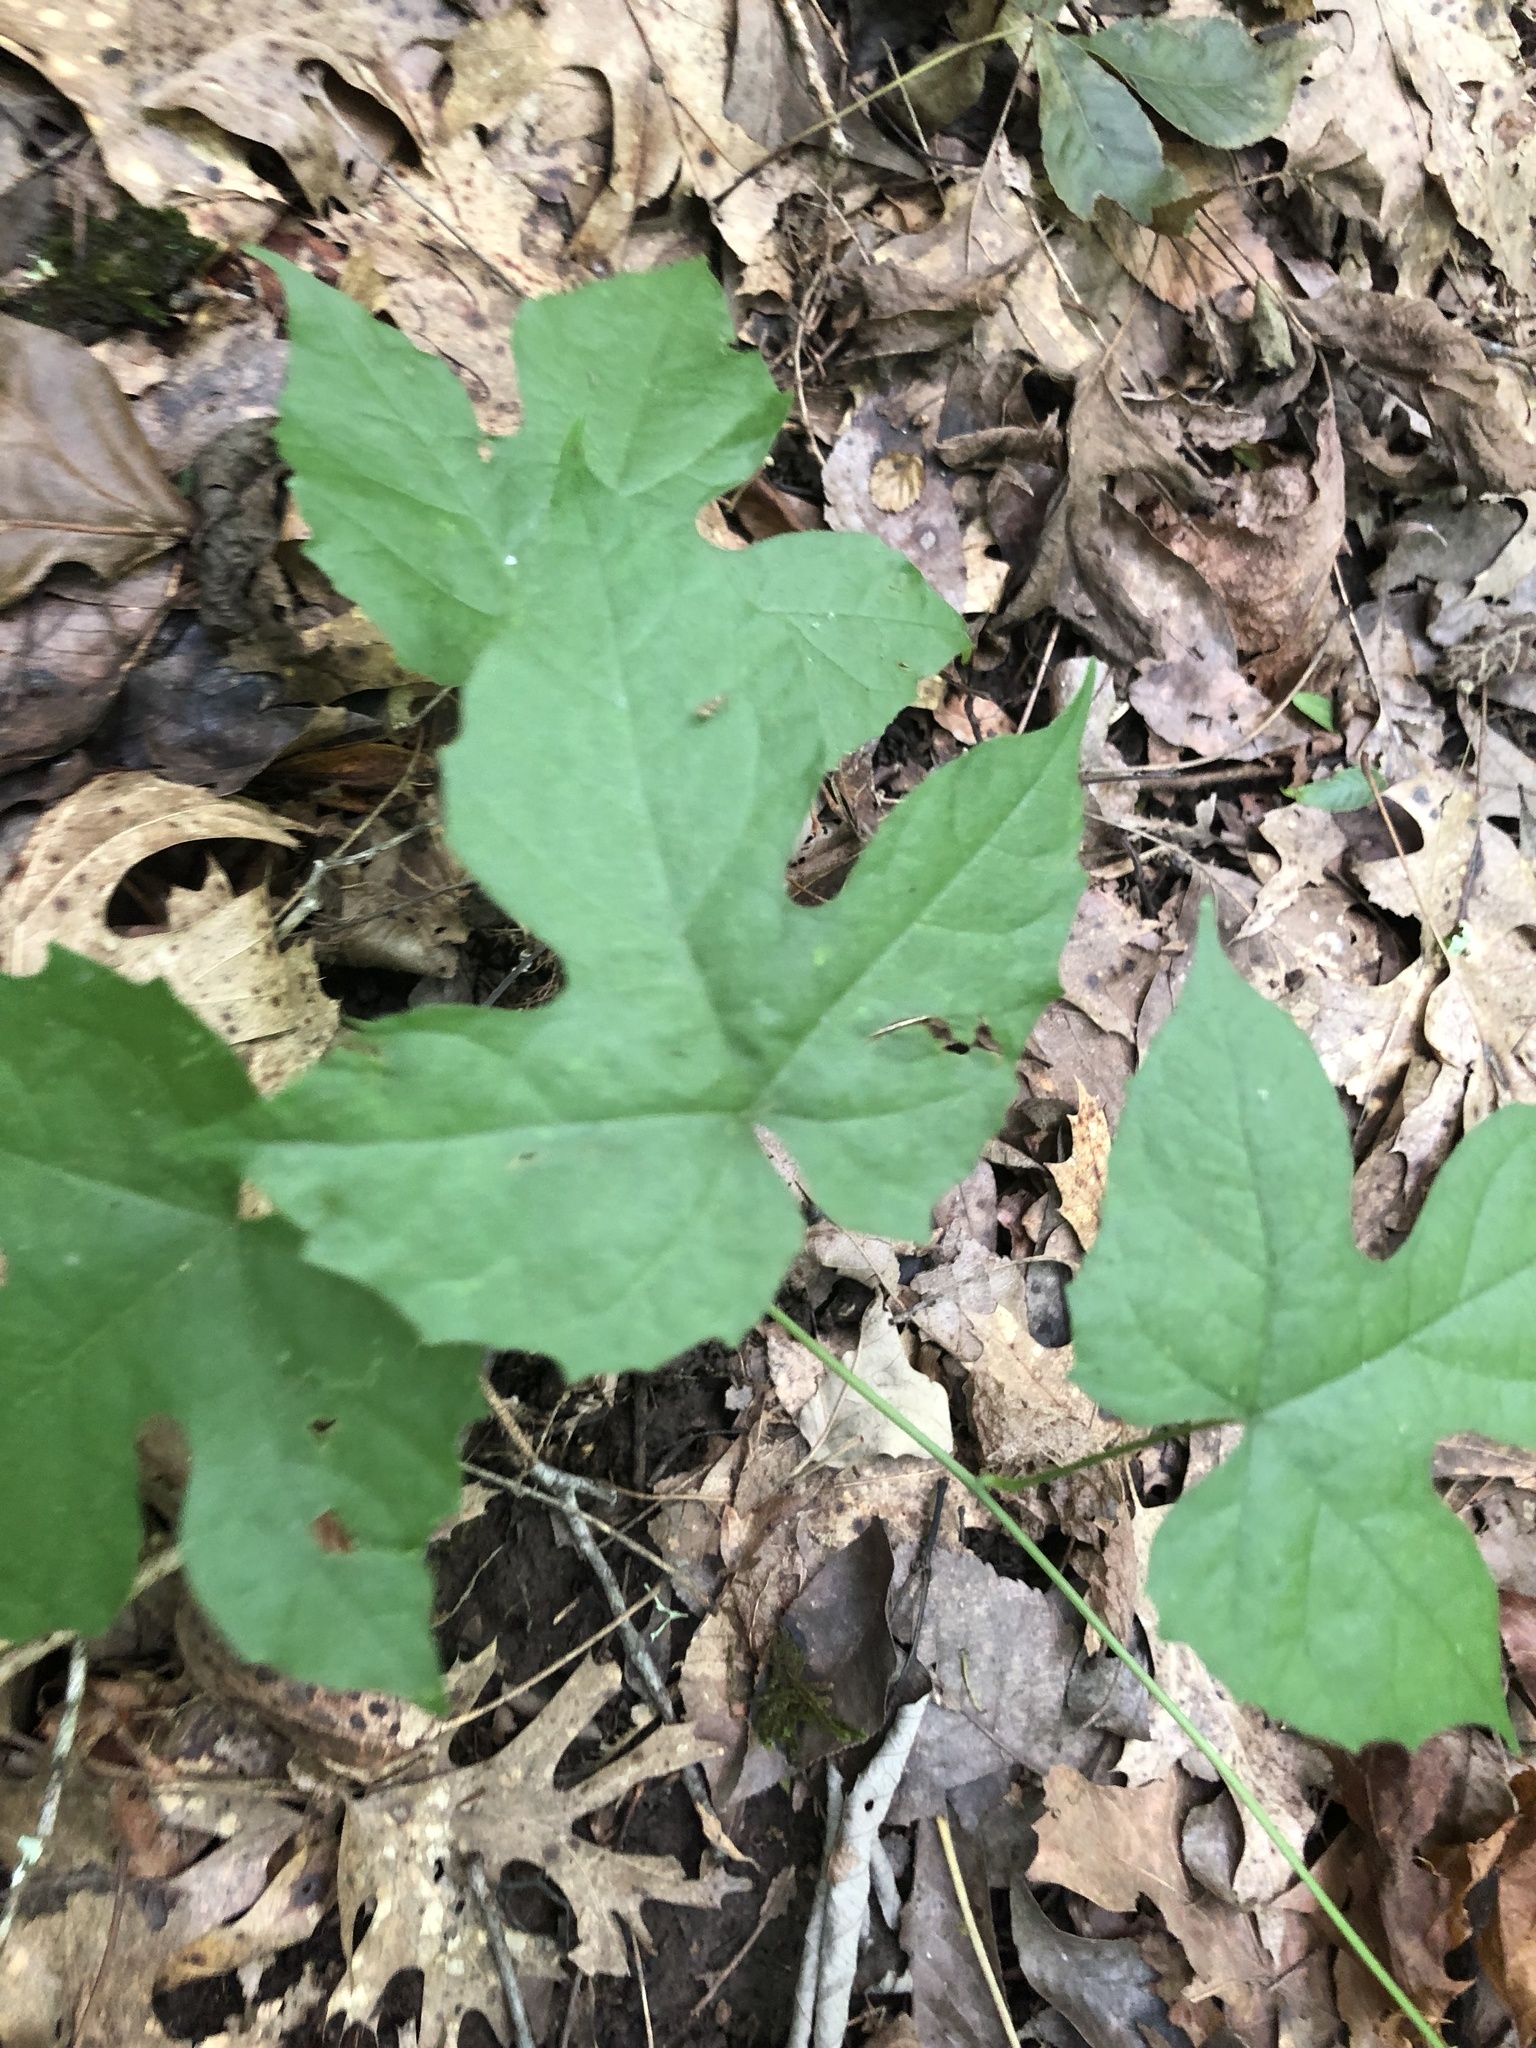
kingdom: Plantae
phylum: Tracheophyta
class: Magnoliopsida
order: Ranunculales
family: Menispermaceae
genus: Calycocarpum
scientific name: Calycocarpum lyonii
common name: Cupseed
